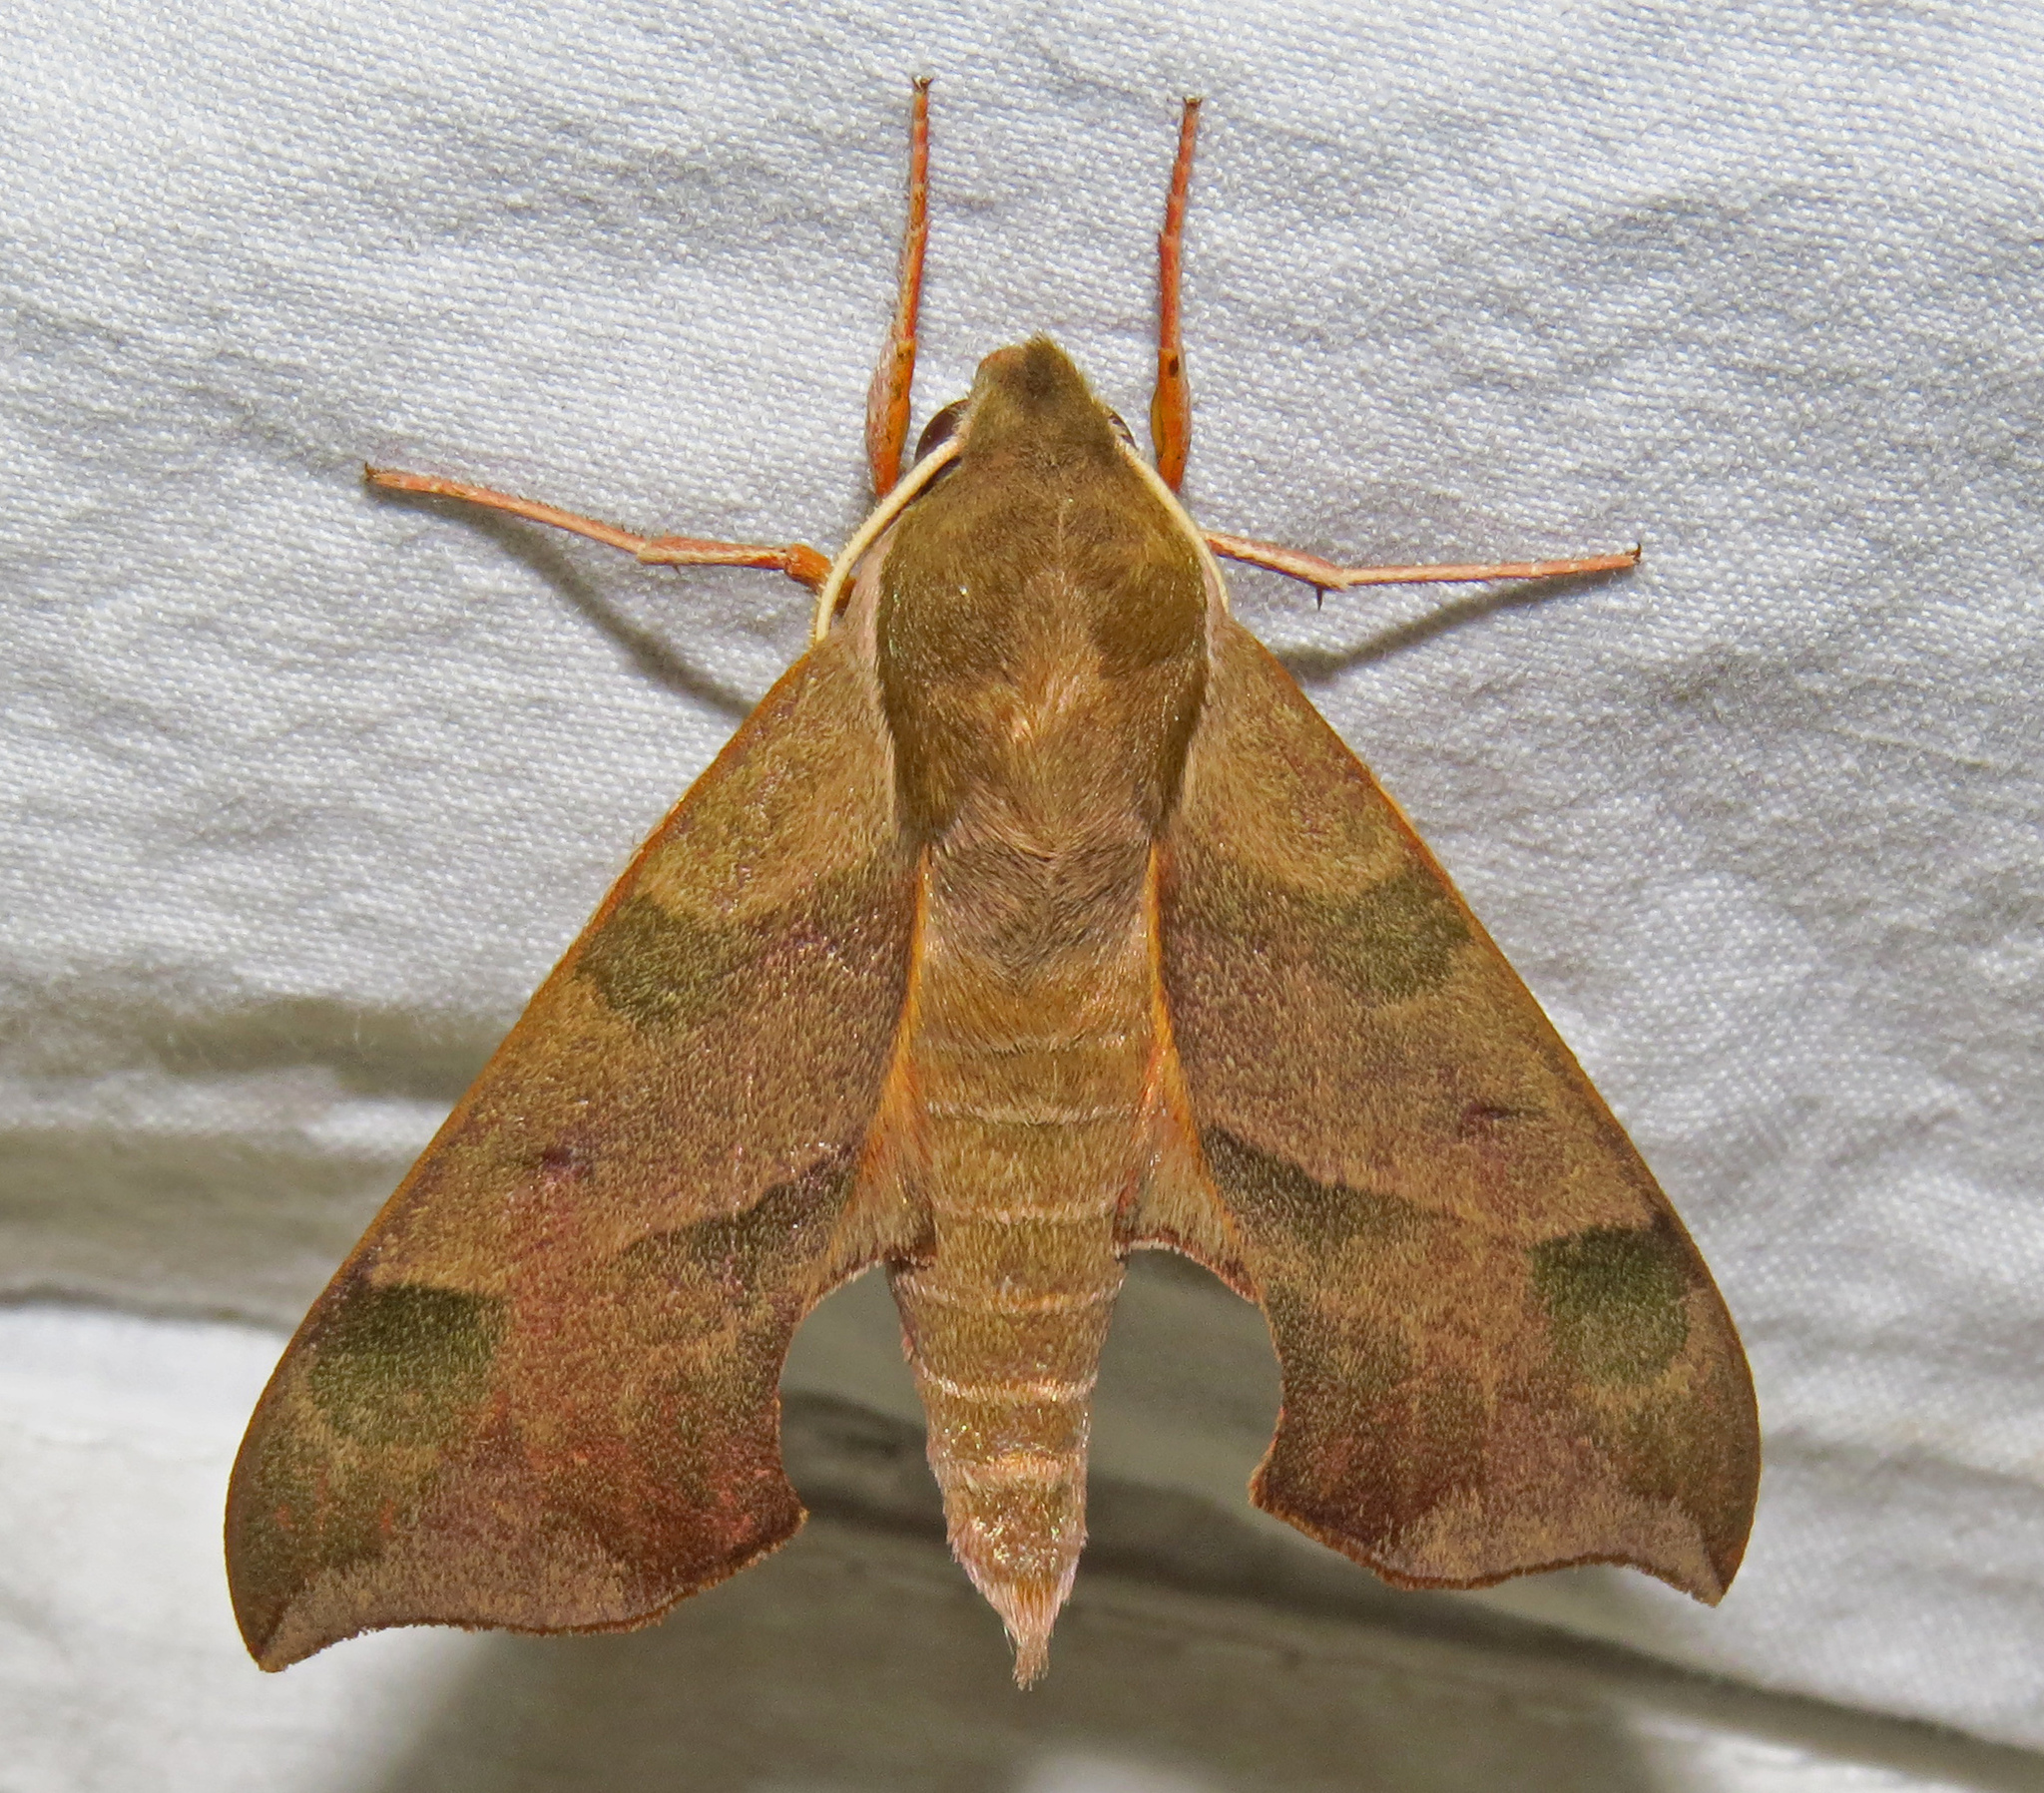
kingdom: Animalia
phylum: Arthropoda
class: Insecta
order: Lepidoptera
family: Sphingidae
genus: Darapsa
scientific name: Darapsa myron
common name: Hog sphinx
